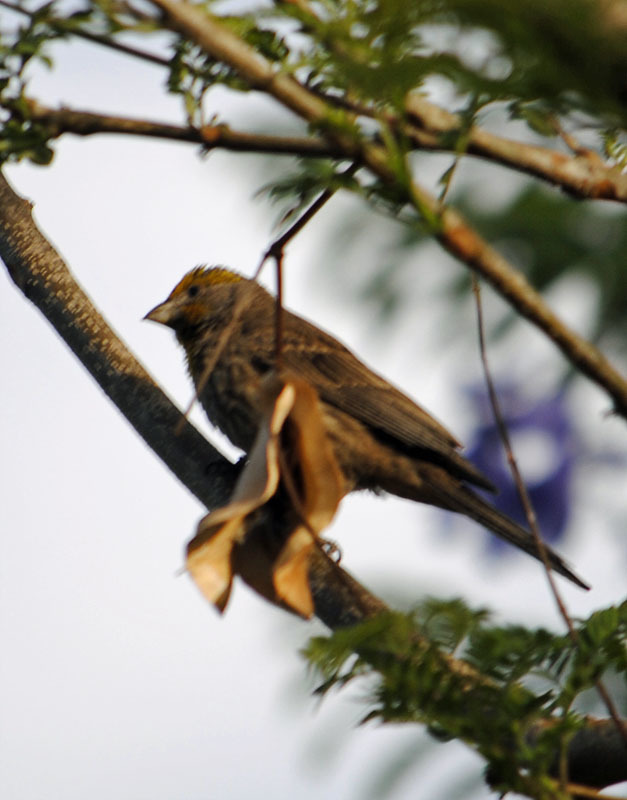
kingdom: Animalia
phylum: Chordata
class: Aves
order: Passeriformes
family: Fringillidae
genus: Haemorhous
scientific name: Haemorhous mexicanus
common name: House finch
